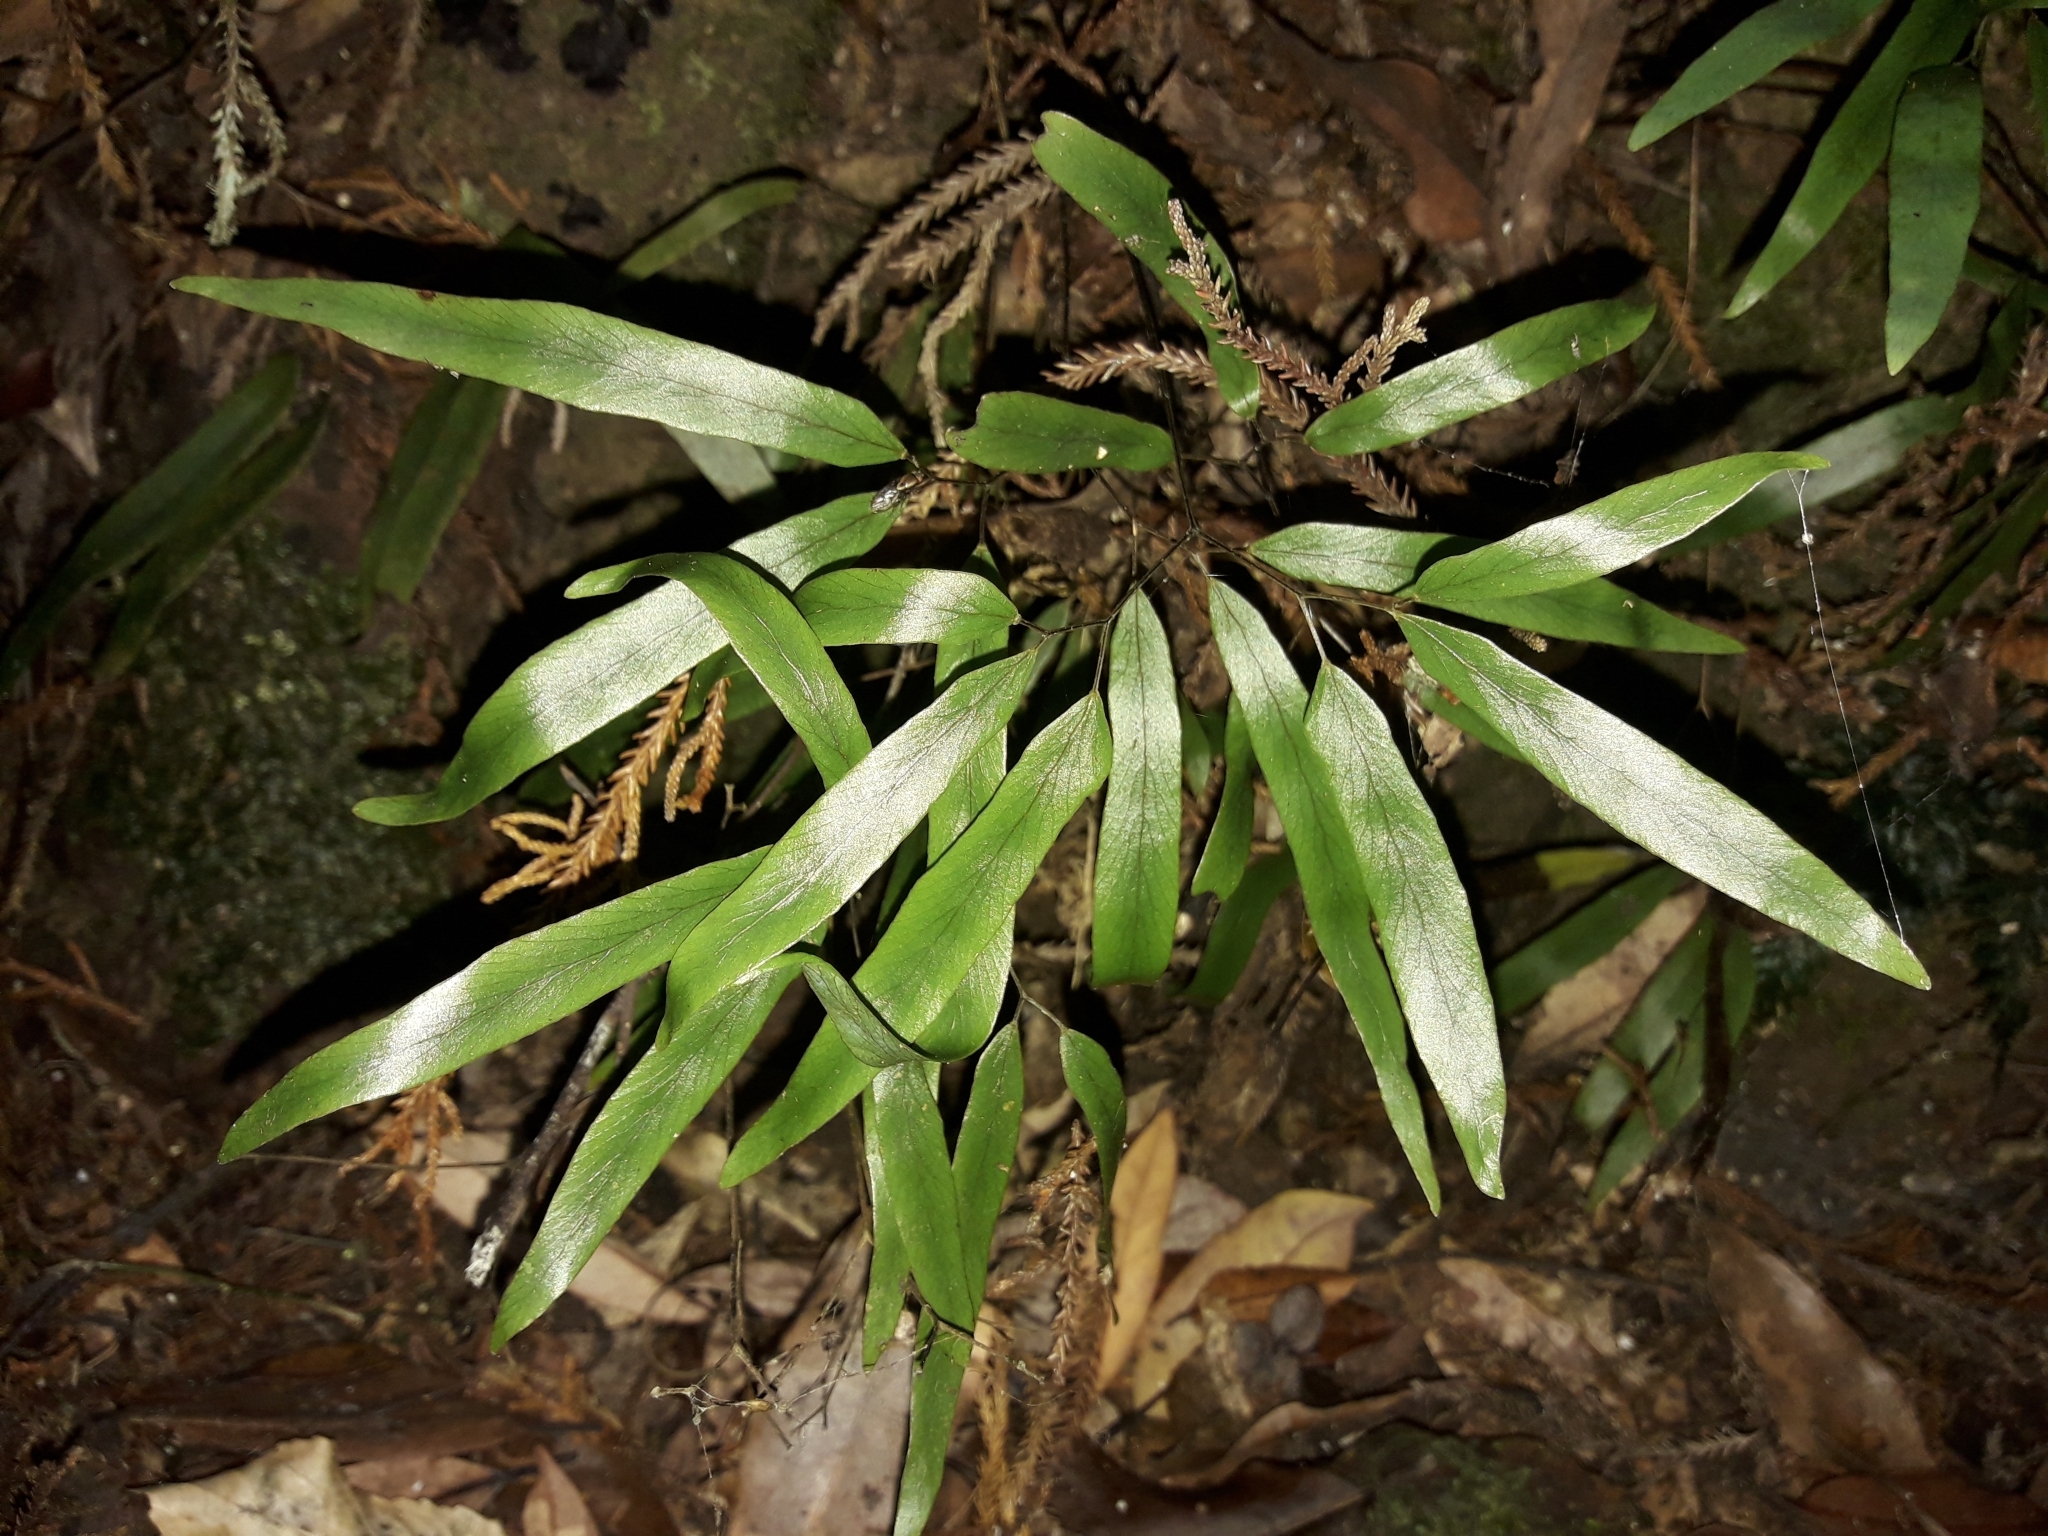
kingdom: Plantae
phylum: Tracheophyta
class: Polypodiopsida
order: Schizaeales
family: Lygodiaceae
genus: Lygodium
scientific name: Lygodium articulatum
